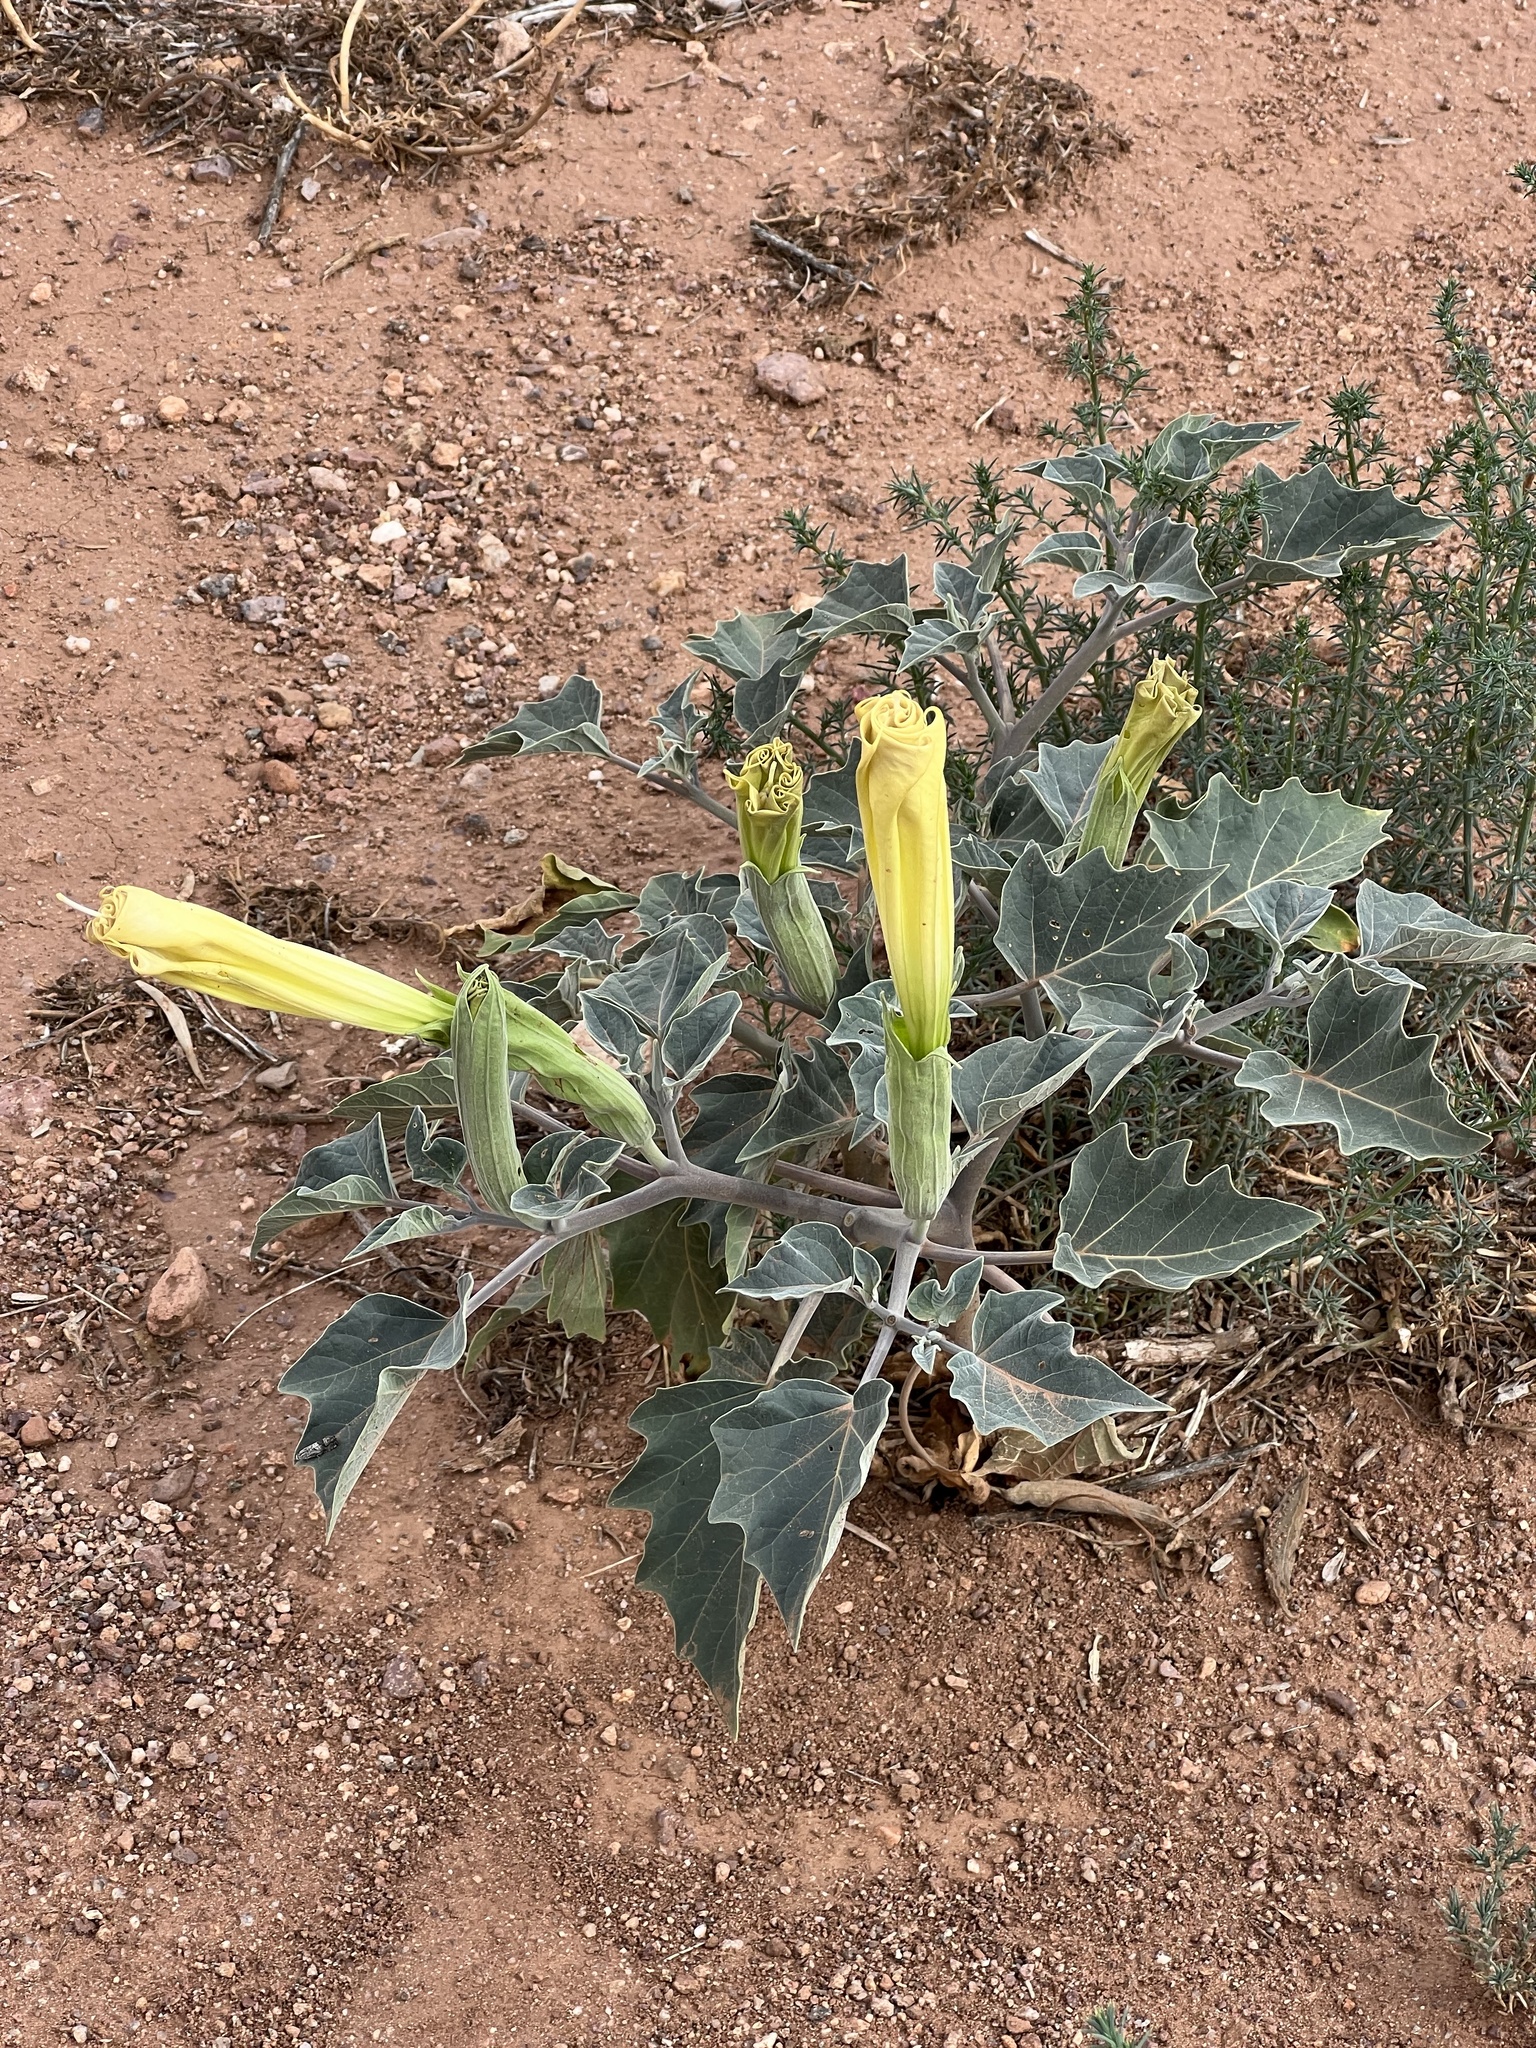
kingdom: Plantae
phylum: Tracheophyta
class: Magnoliopsida
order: Solanales
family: Solanaceae
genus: Datura
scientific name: Datura wrightii
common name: Sacred thorn-apple
